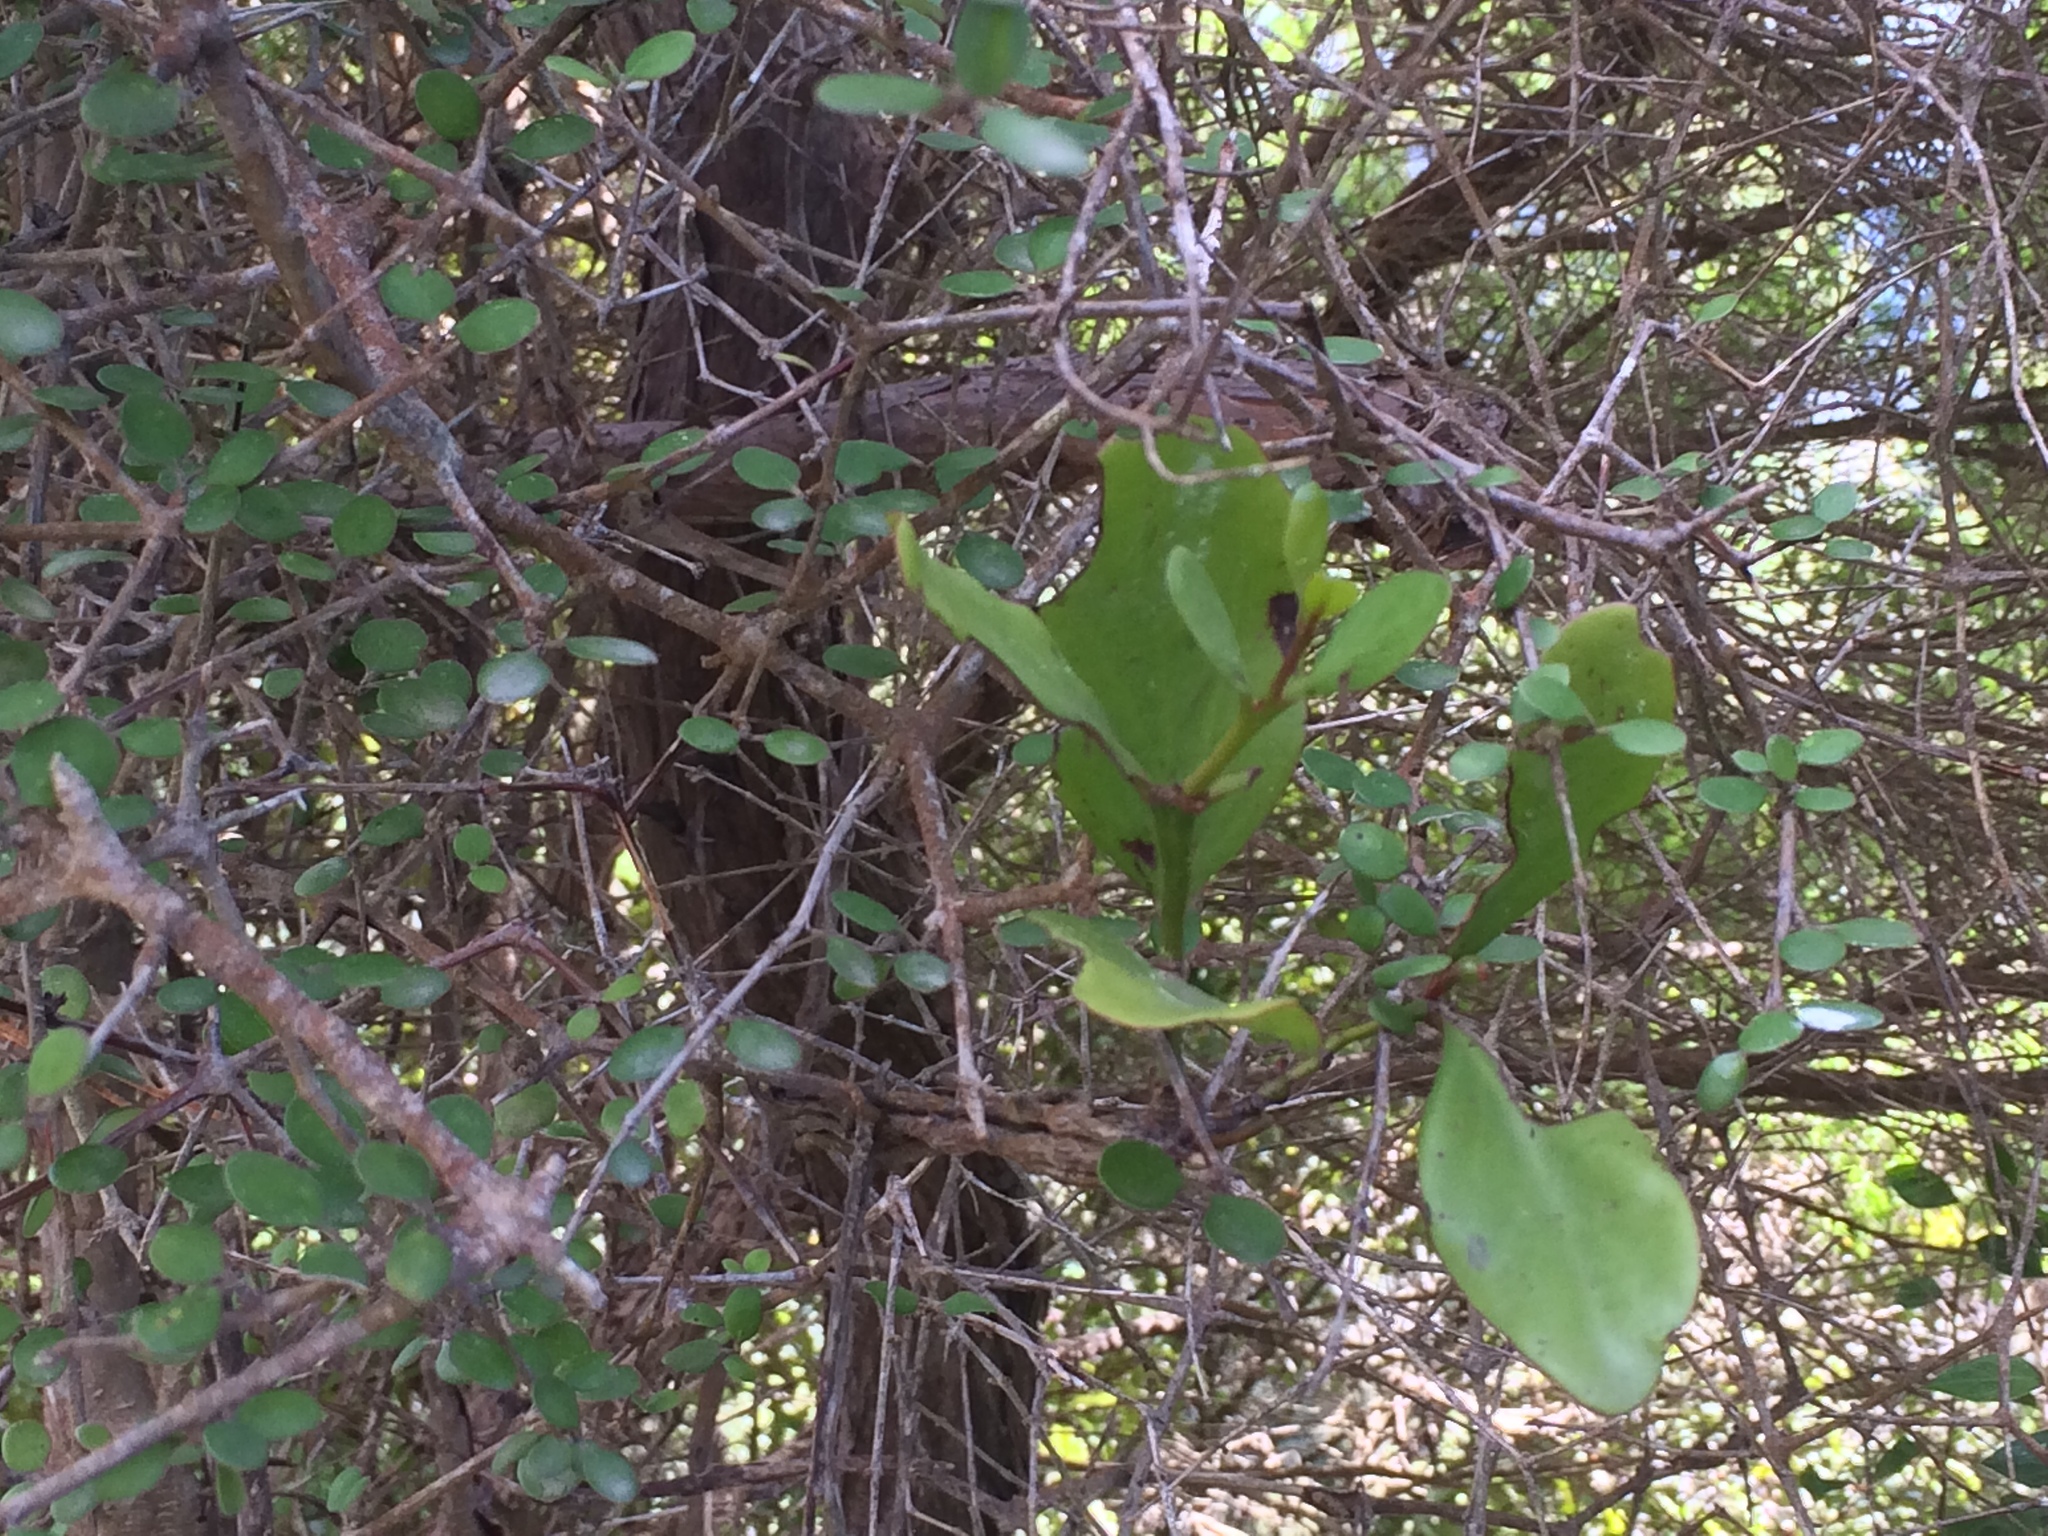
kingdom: Plantae
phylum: Tracheophyta
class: Magnoliopsida
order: Santalales
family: Loranthaceae
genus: Ileostylus
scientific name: Ileostylus micranthus
